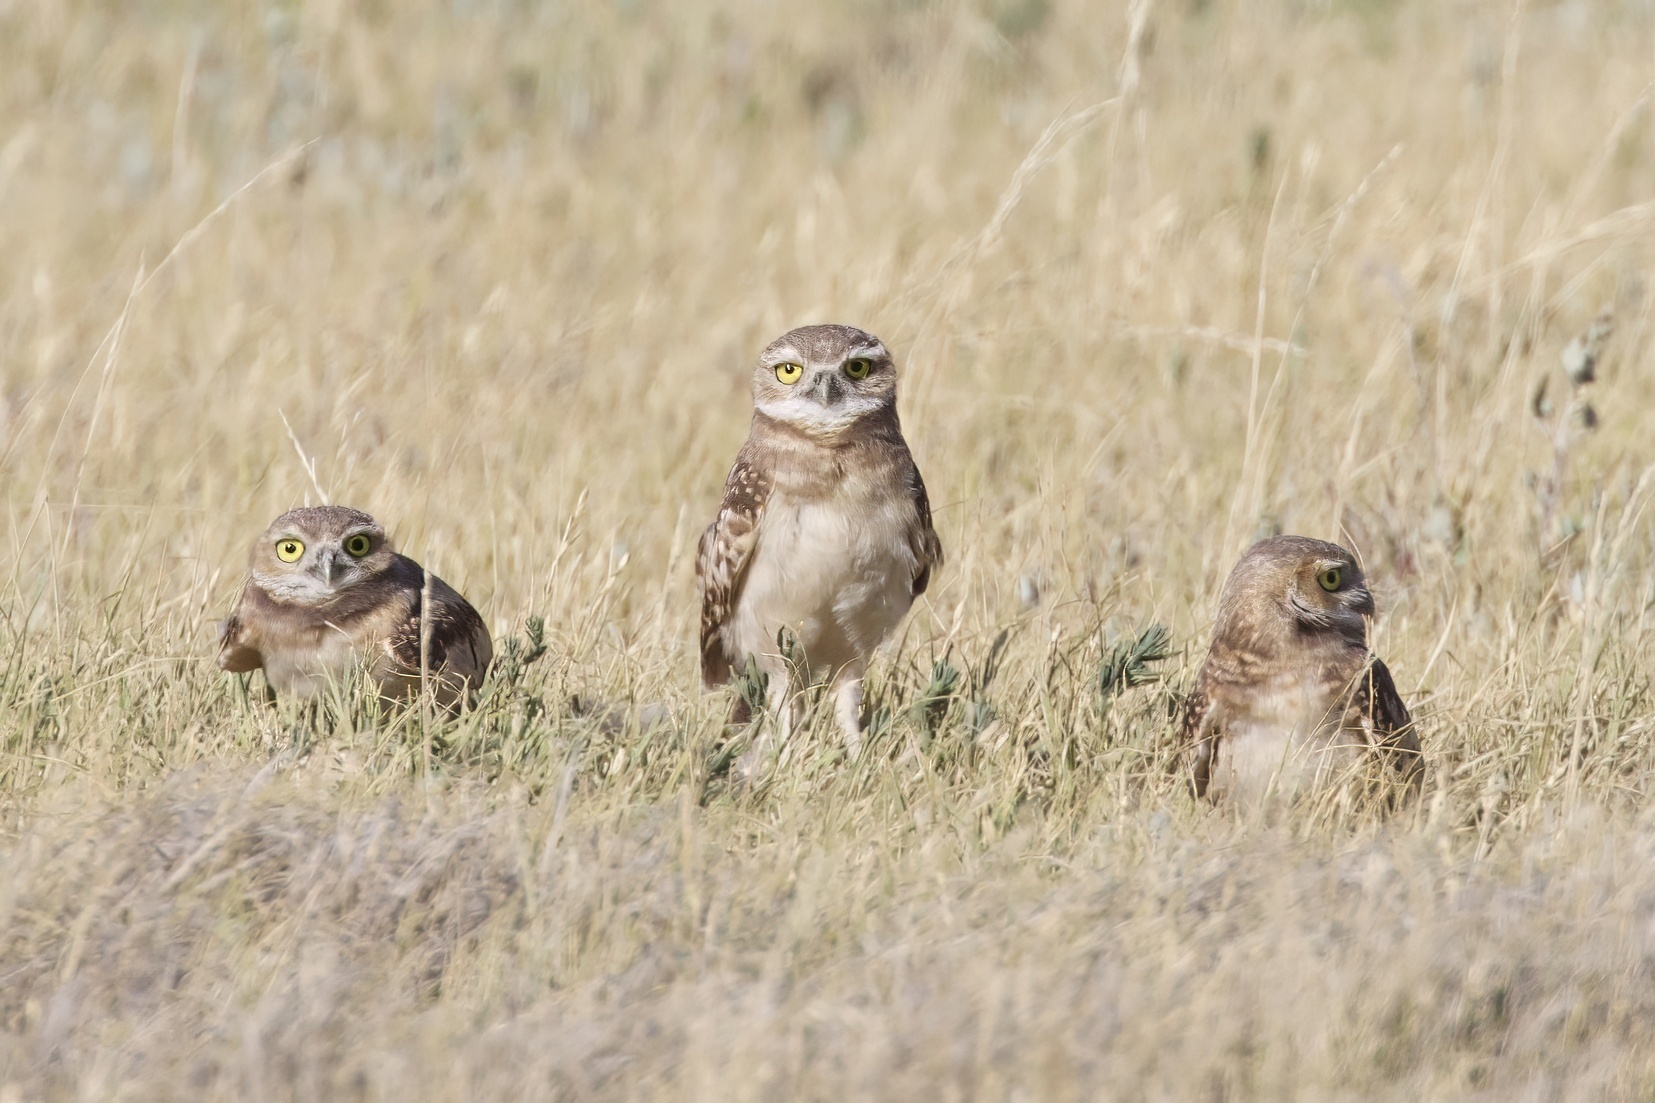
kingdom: Animalia
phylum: Chordata
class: Aves
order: Strigiformes
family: Strigidae
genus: Athene
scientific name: Athene cunicularia
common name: Burrowing owl
